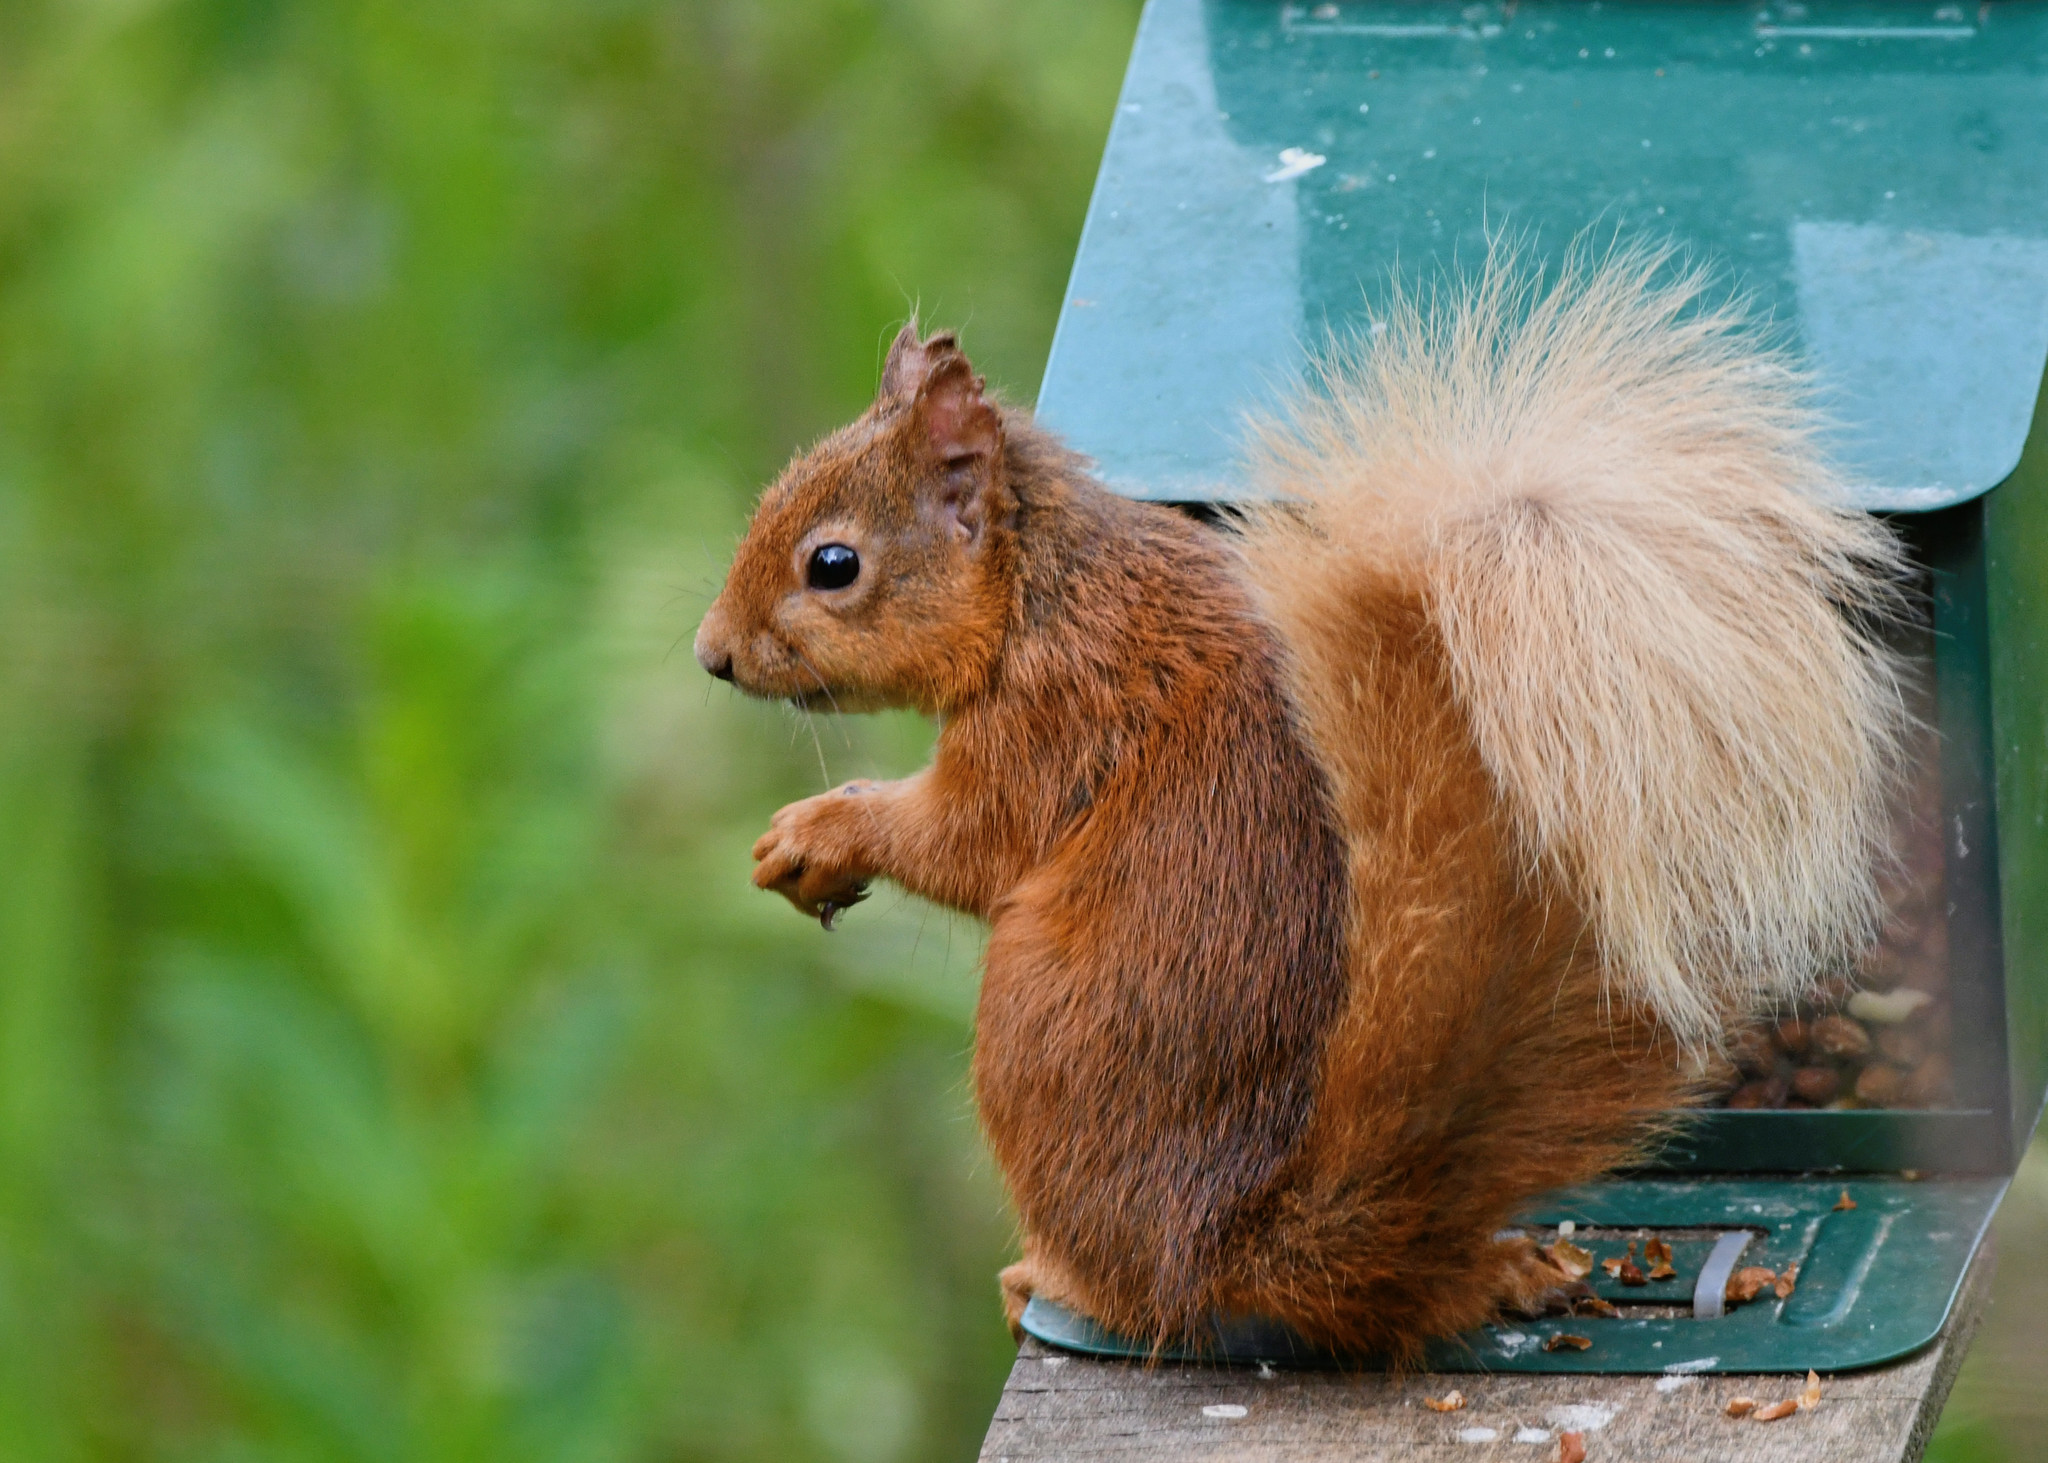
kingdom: Animalia
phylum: Chordata
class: Mammalia
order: Rodentia
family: Sciuridae
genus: Sciurus
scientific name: Sciurus vulgaris
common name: Eurasian red squirrel
